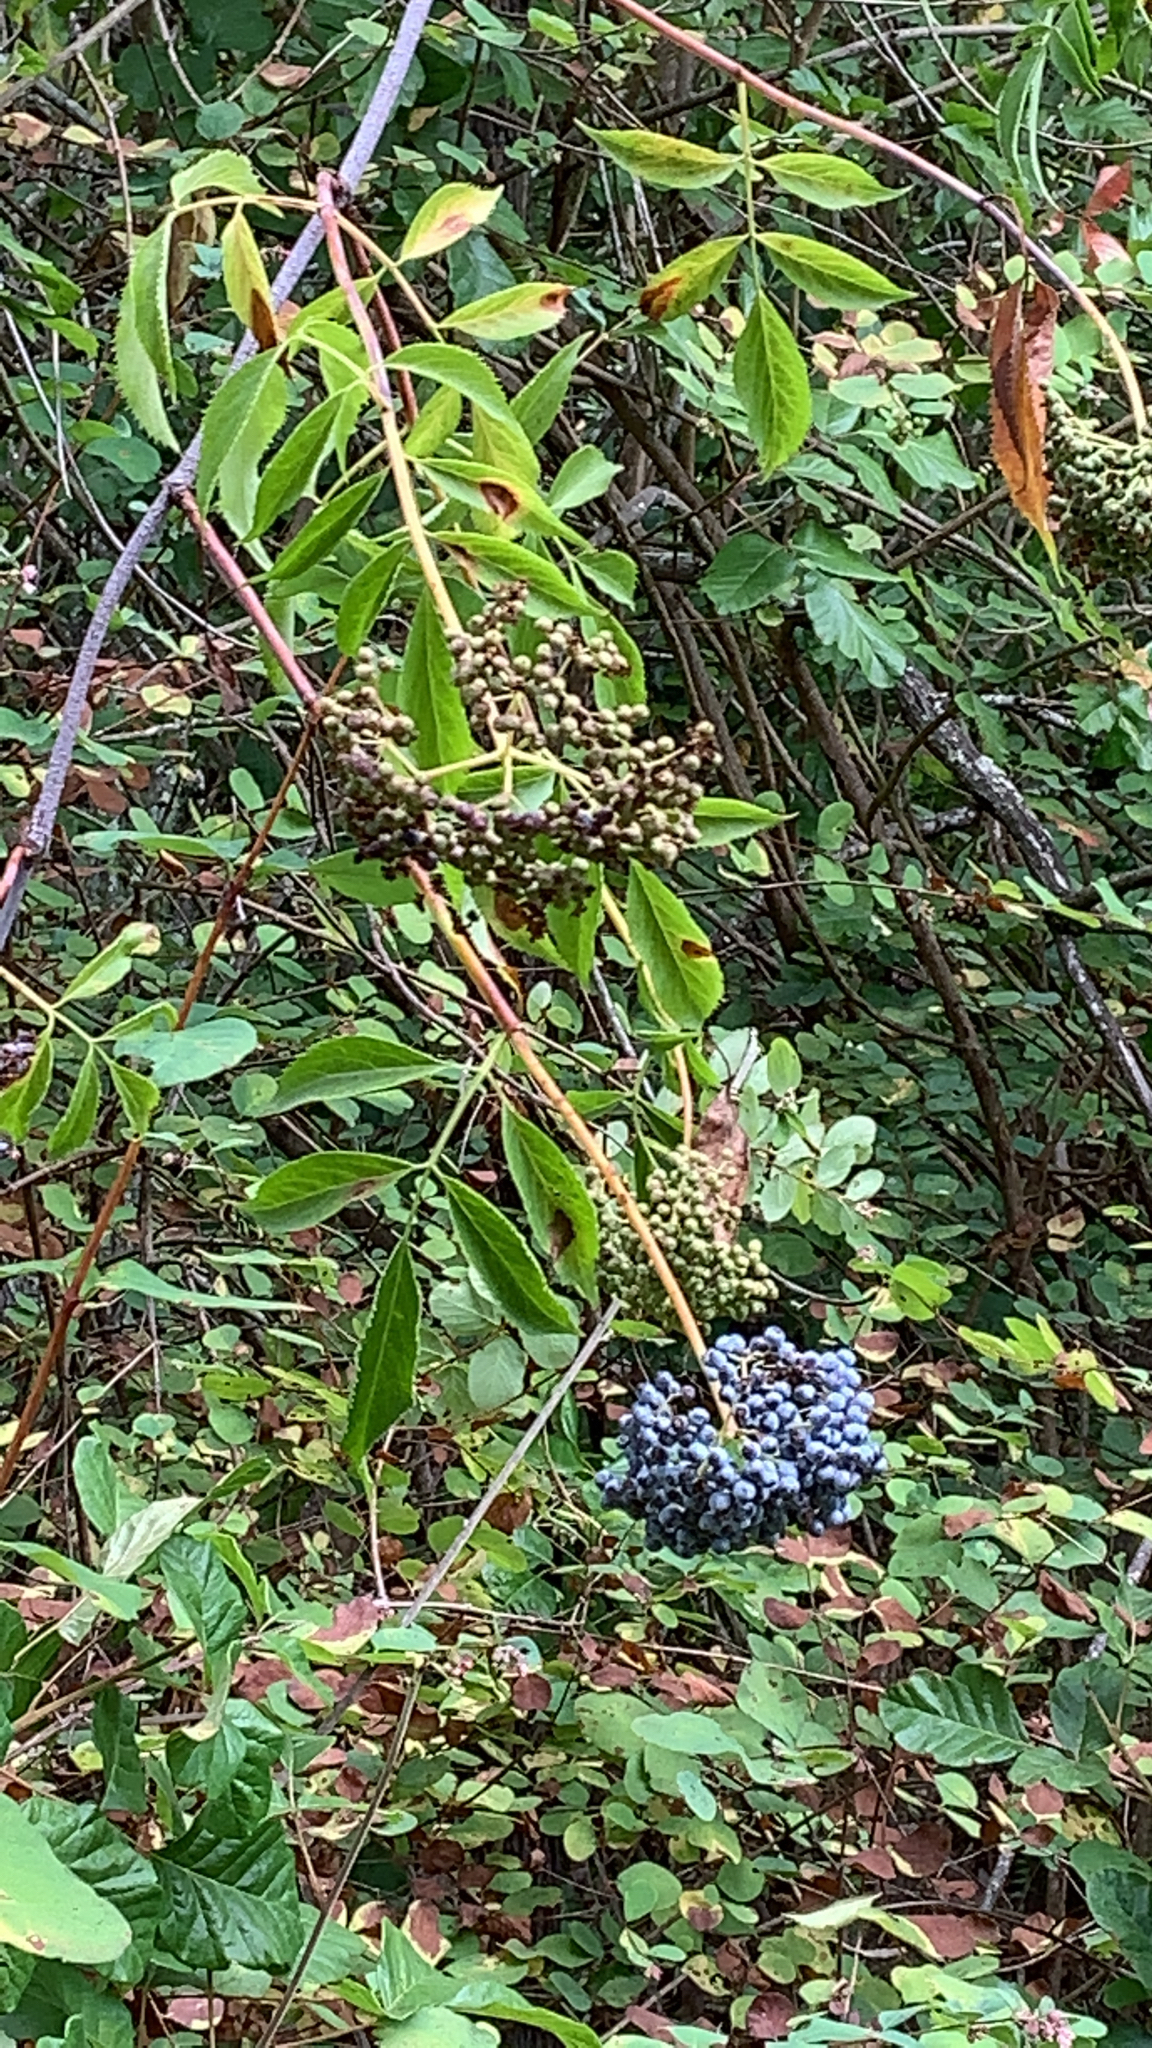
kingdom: Plantae
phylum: Tracheophyta
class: Magnoliopsida
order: Dipsacales
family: Viburnaceae
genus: Sambucus
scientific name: Sambucus cerulea
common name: Blue elder
